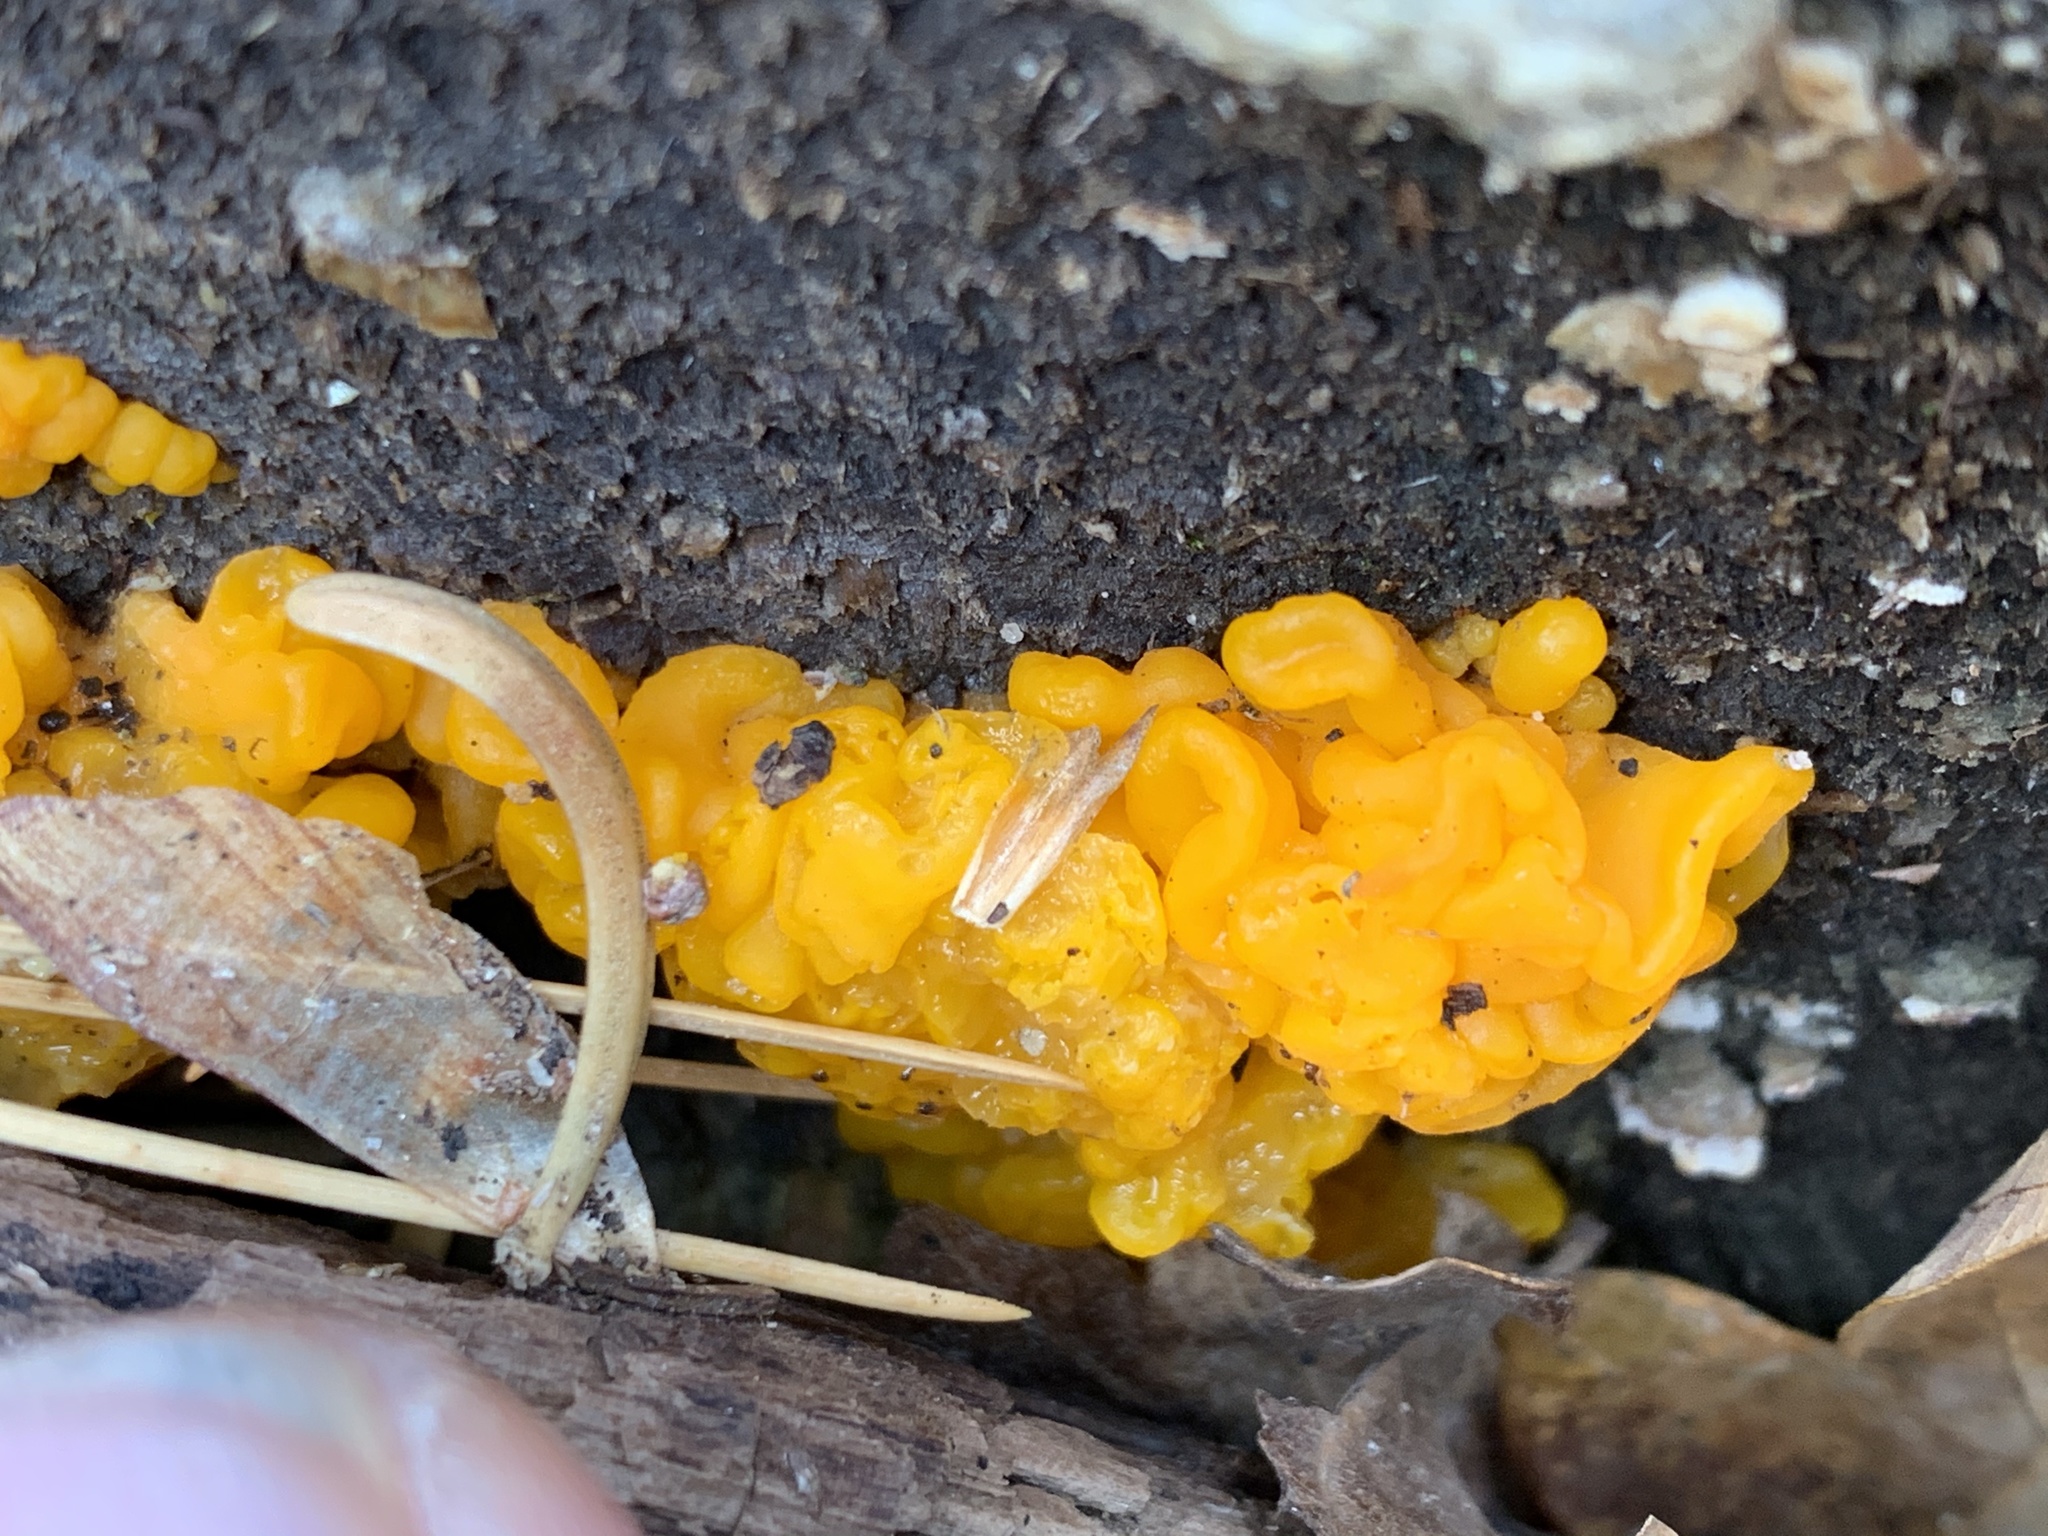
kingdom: Fungi
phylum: Basidiomycota
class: Tremellomycetes
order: Tremellales
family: Naemateliaceae
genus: Naematelia
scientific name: Naematelia aurantia
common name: Golden ear
